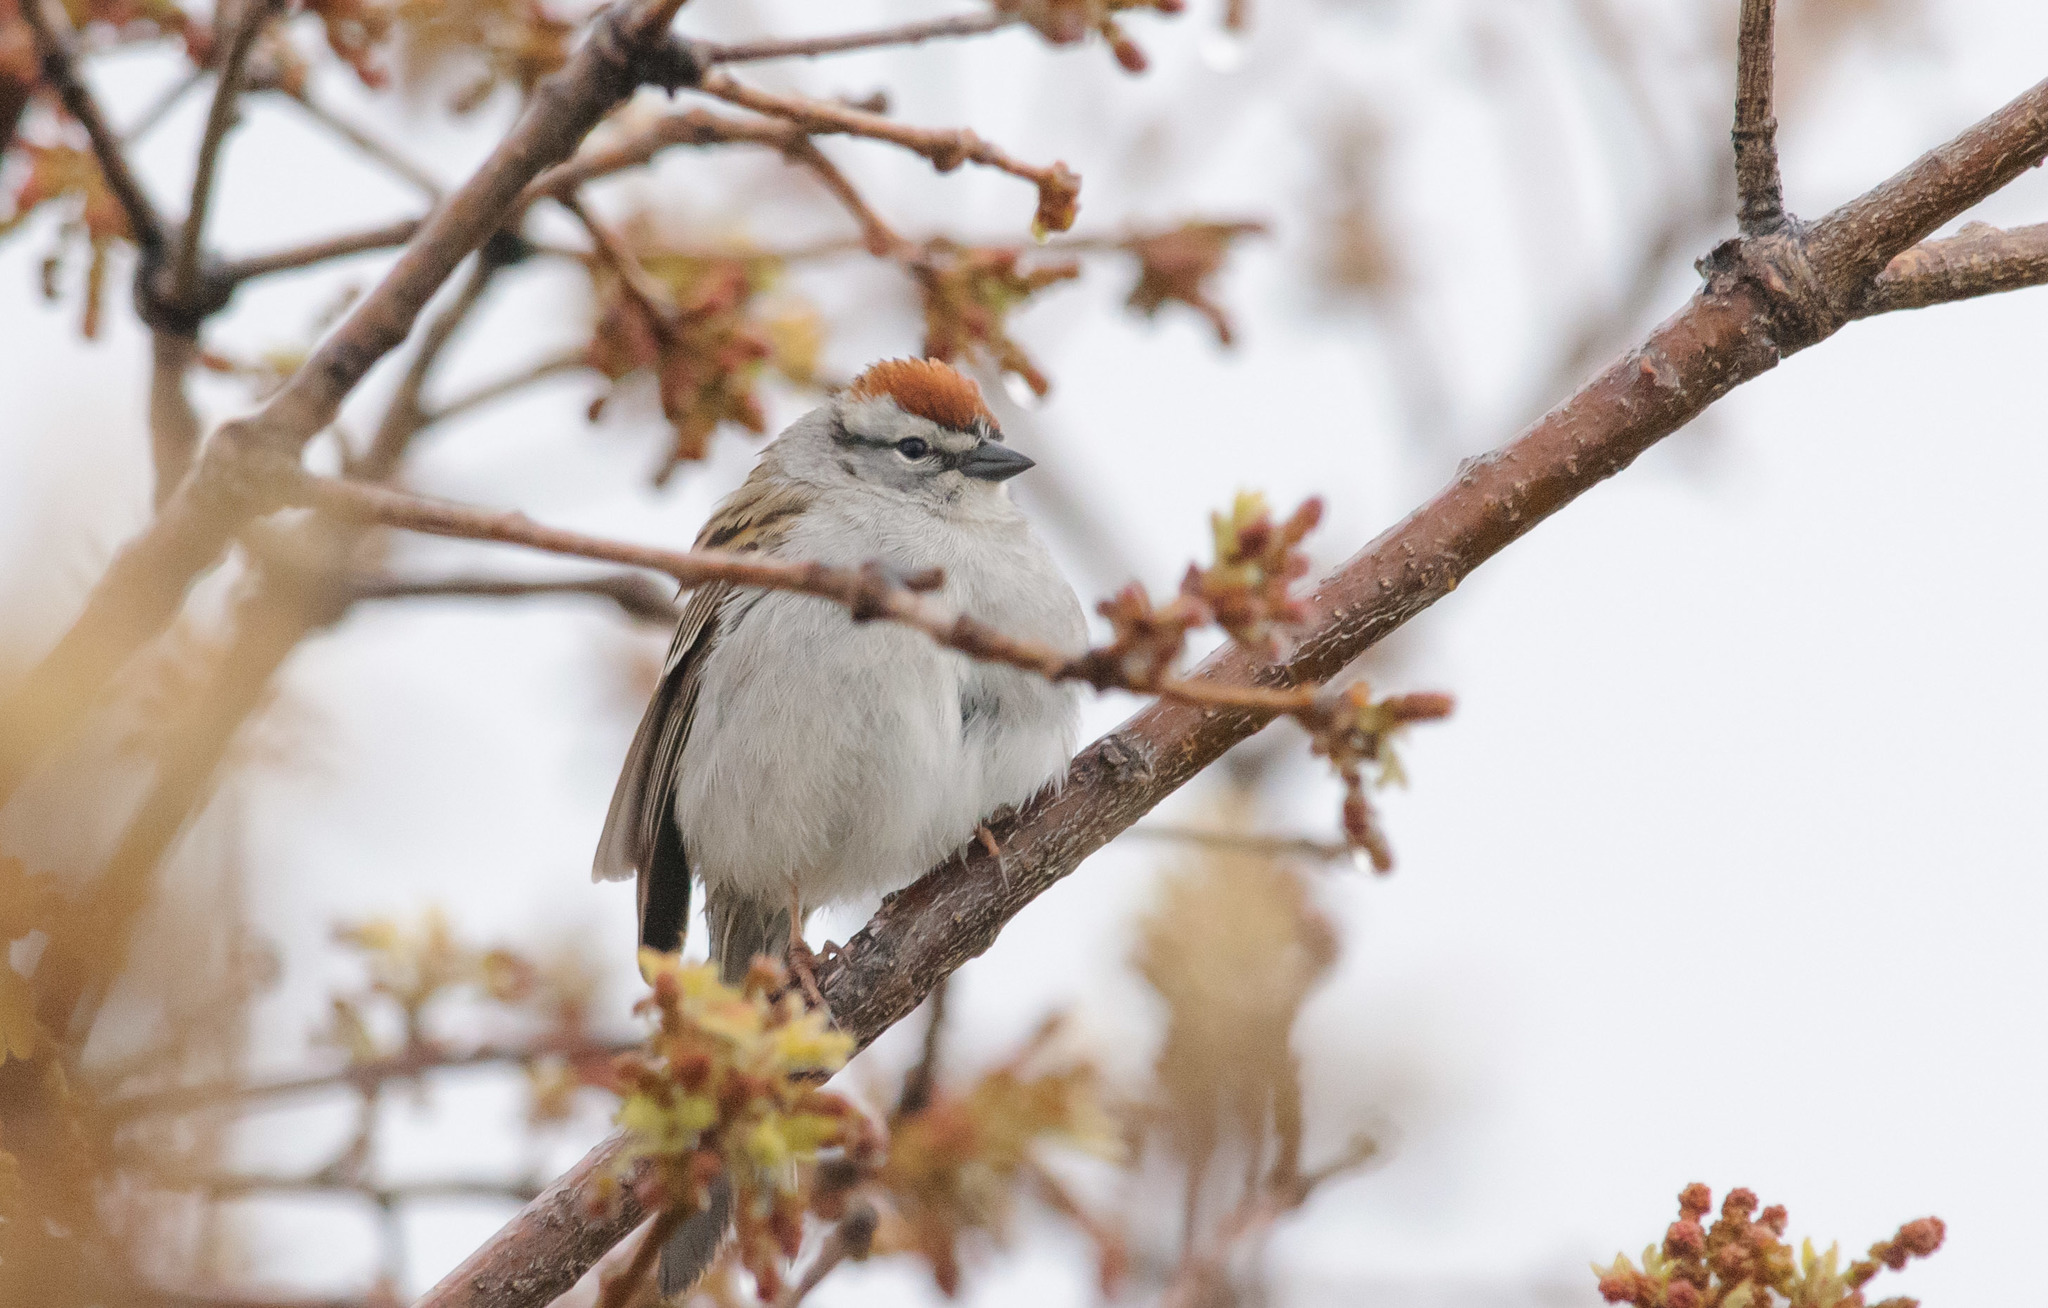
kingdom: Animalia
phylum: Chordata
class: Aves
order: Passeriformes
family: Passerellidae
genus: Spizella
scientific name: Spizella passerina
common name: Chipping sparrow
